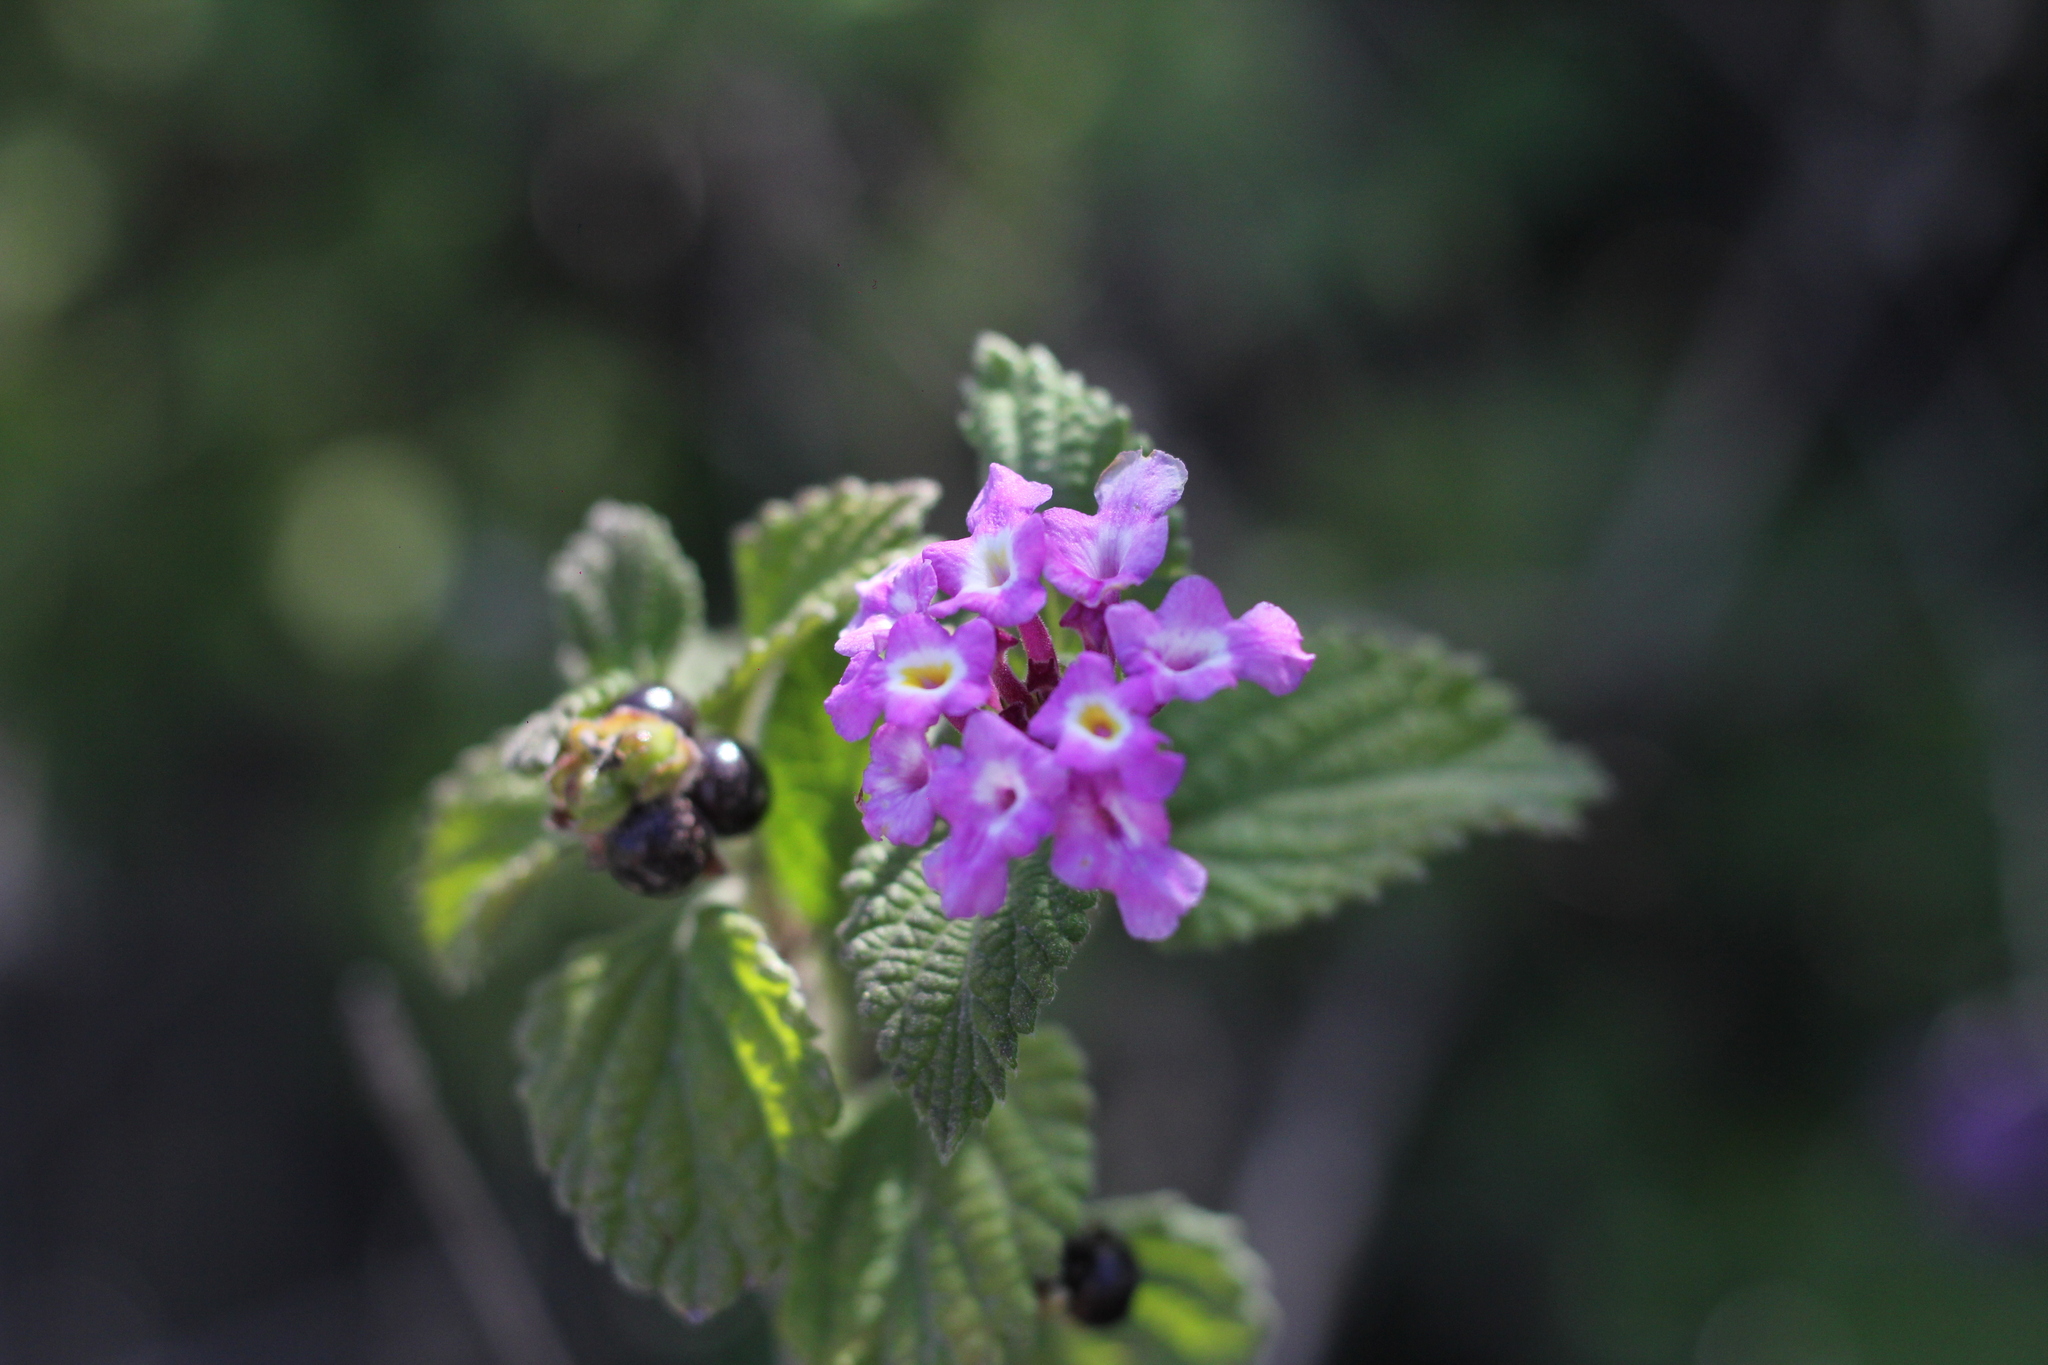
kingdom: Plantae
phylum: Tracheophyta
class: Magnoliopsida
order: Lamiales
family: Verbenaceae
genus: Lantana
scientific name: Lantana montevidensis
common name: Trailing shrubverbena
